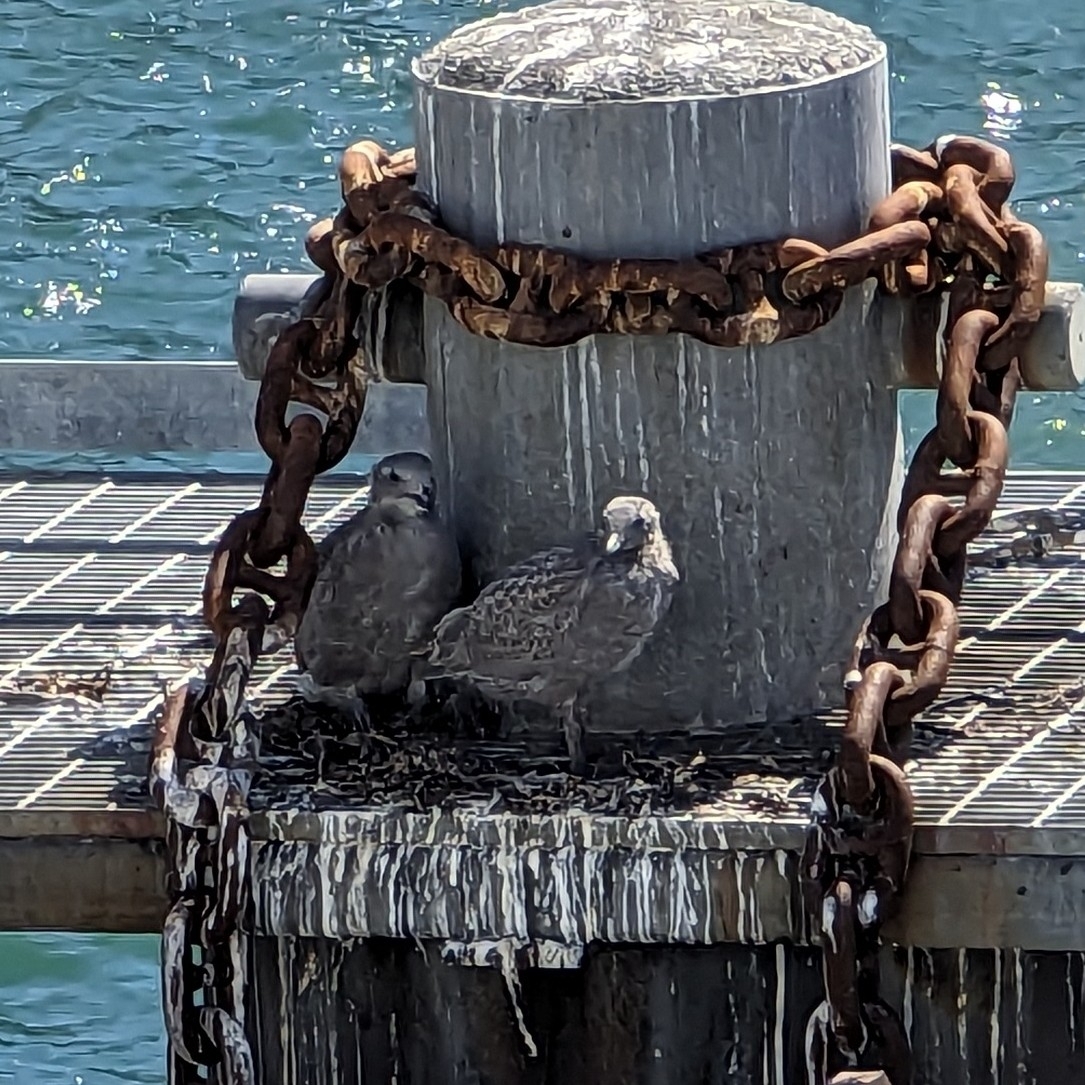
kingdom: Animalia
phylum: Chordata
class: Aves
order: Charadriiformes
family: Laridae
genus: Larus
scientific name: Larus glaucescens
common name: Glaucous-winged gull
